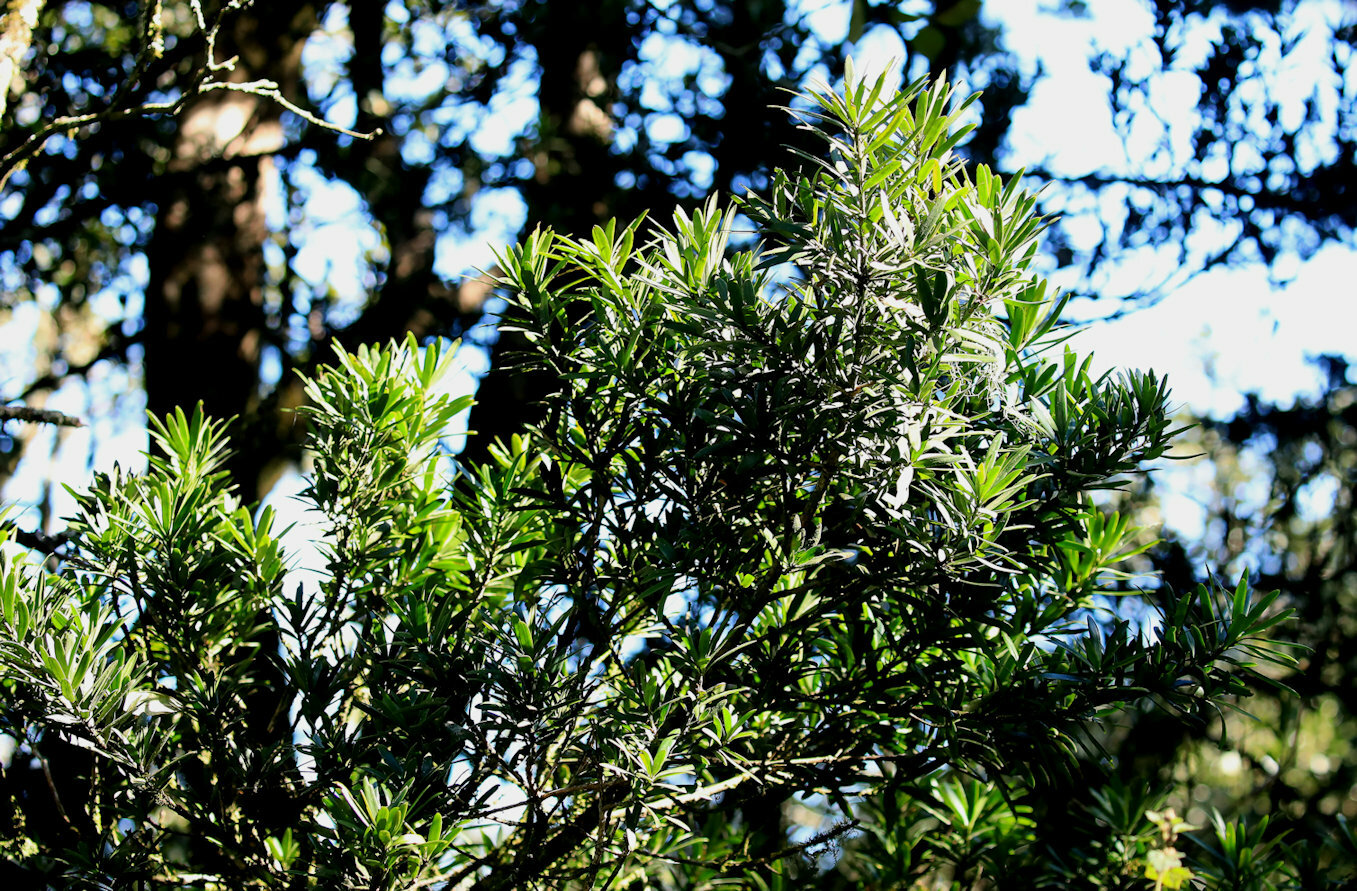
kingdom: Plantae
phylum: Tracheophyta
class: Pinopsida
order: Pinales
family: Podocarpaceae
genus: Podocarpus
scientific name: Podocarpus latifolius
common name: True yellowwood
